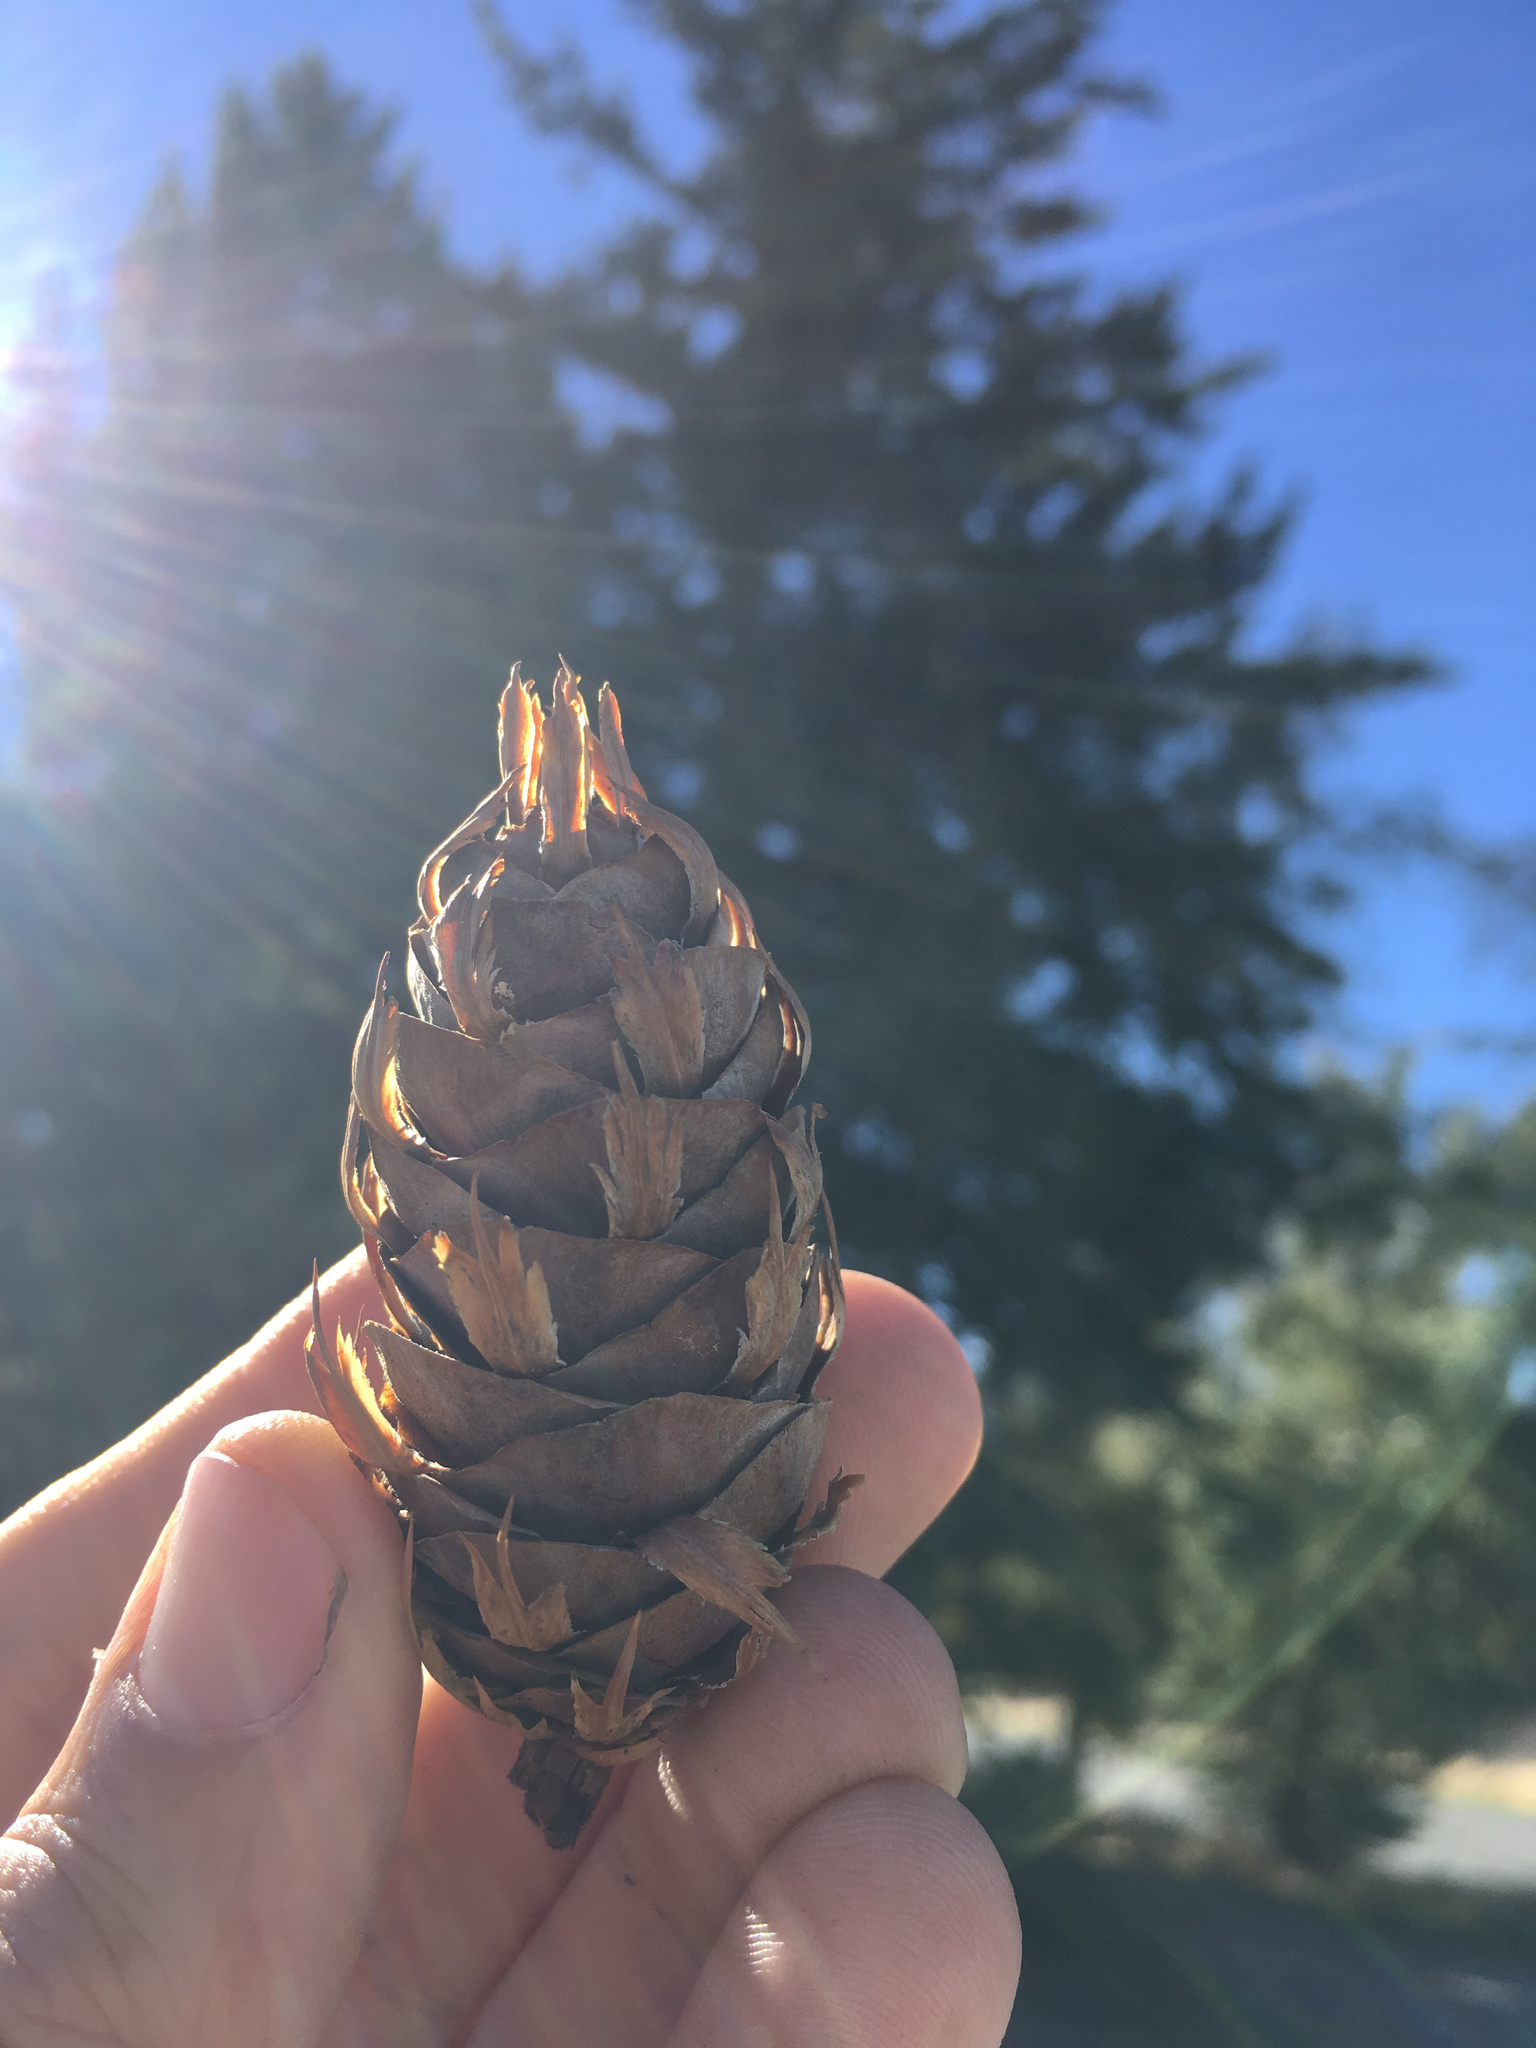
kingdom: Plantae
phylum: Tracheophyta
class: Pinopsida
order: Pinales
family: Pinaceae
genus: Pseudotsuga
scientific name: Pseudotsuga menziesii
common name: Douglas fir
